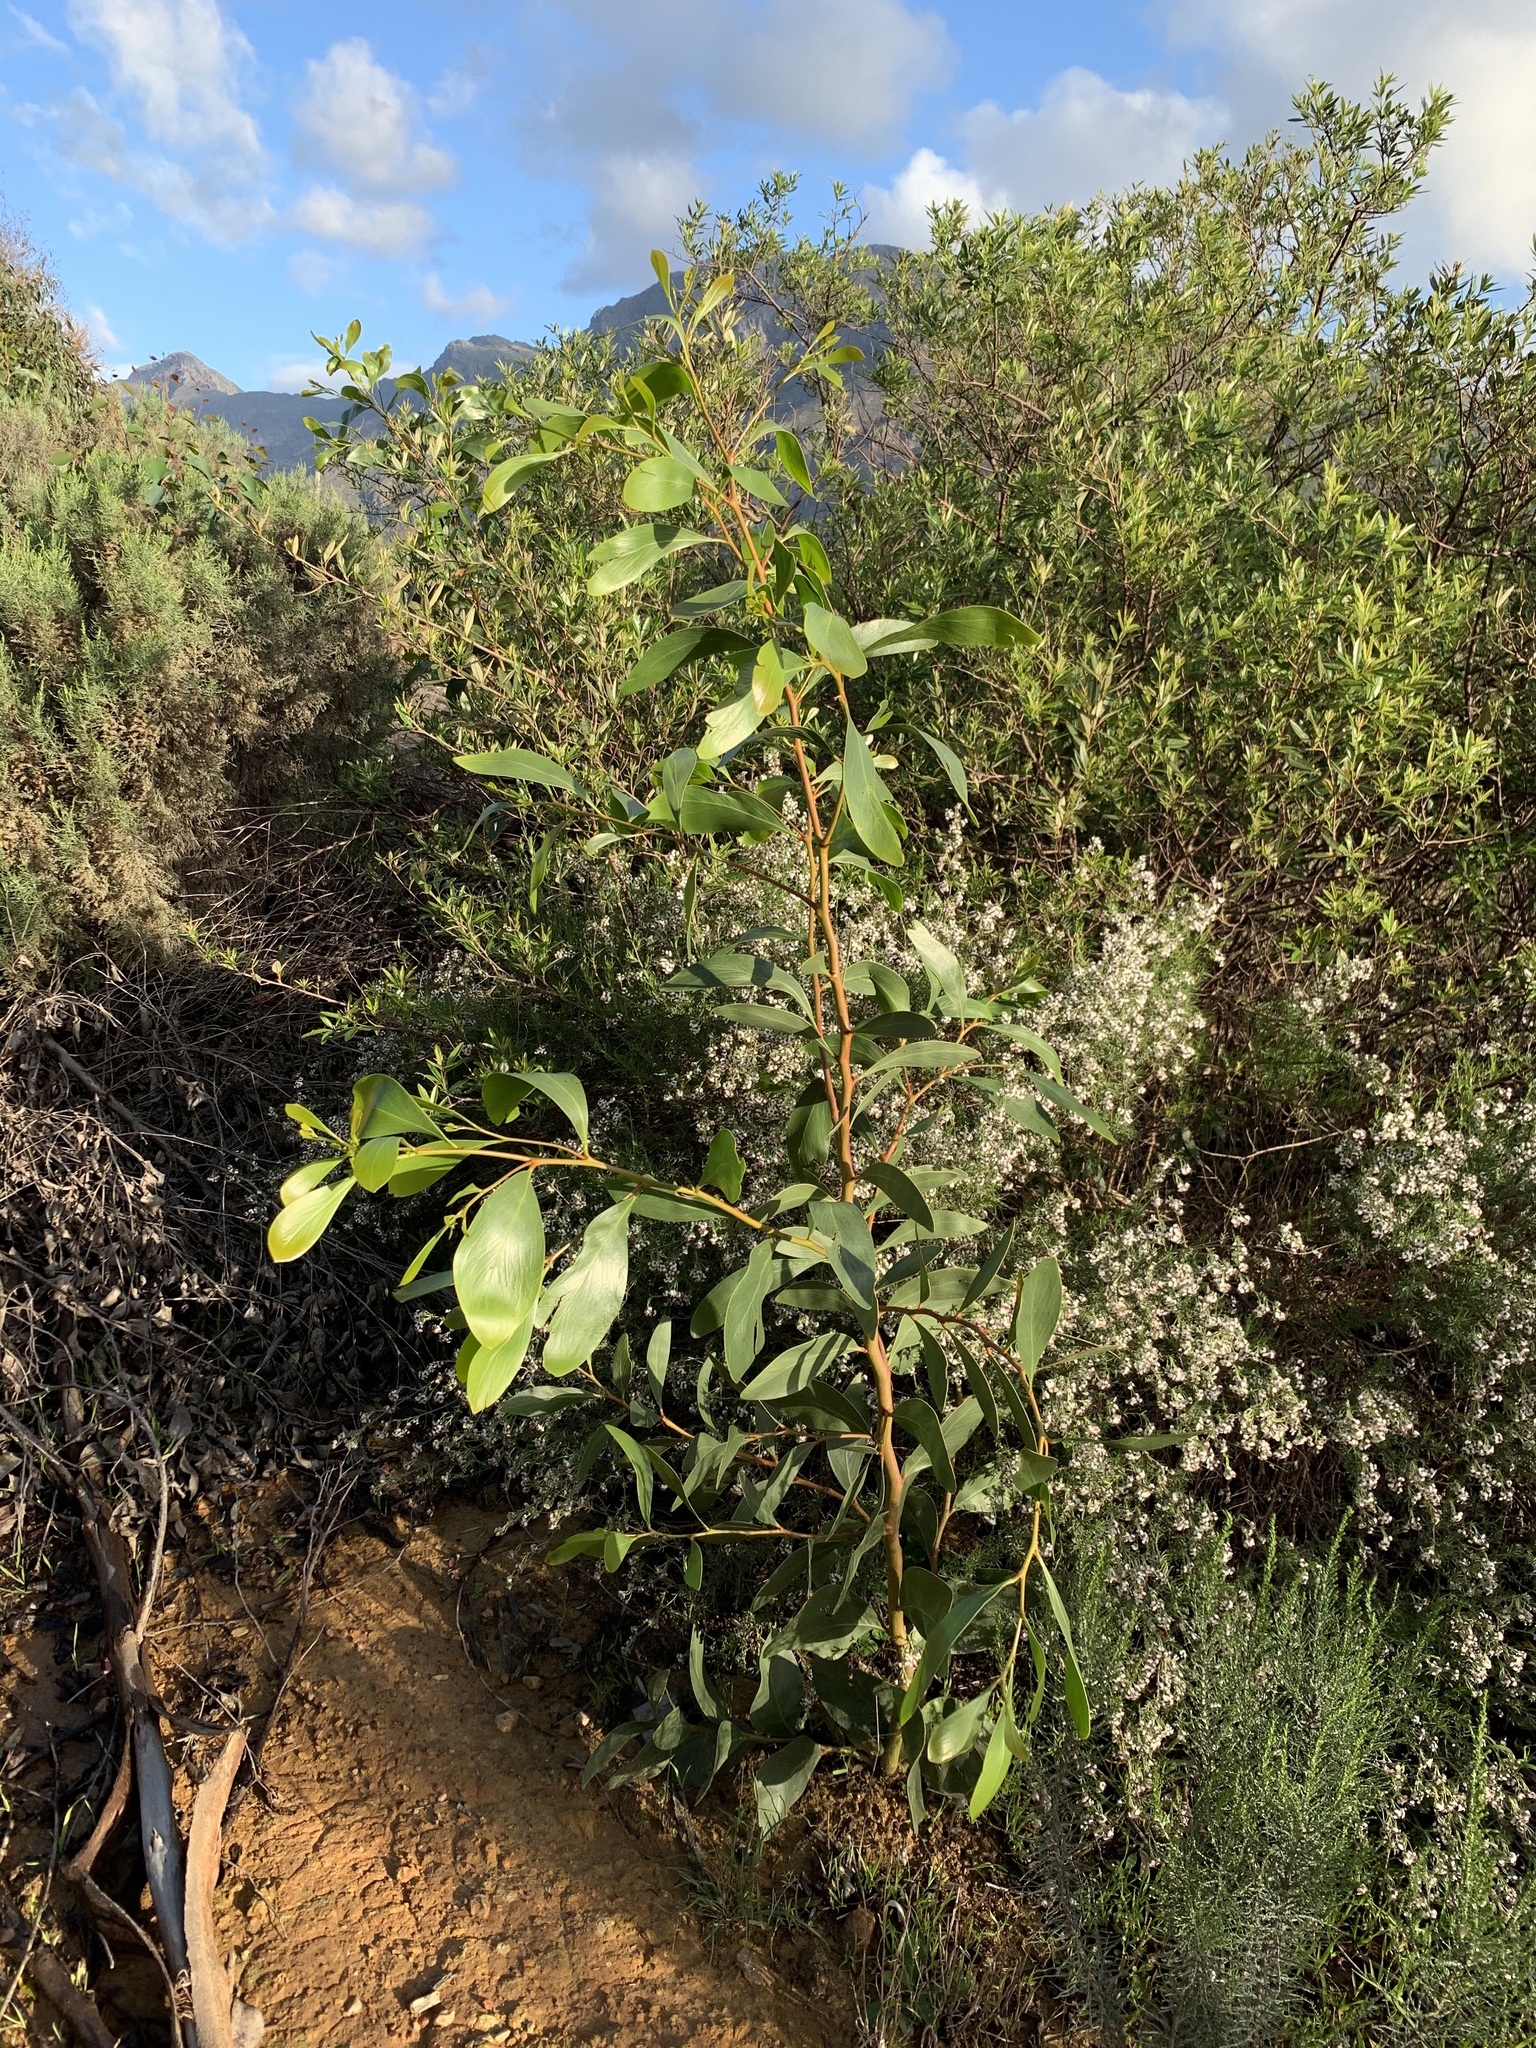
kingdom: Plantae
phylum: Tracheophyta
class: Magnoliopsida
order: Fabales
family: Fabaceae
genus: Acacia
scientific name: Acacia pycnantha
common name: Golden wattle
